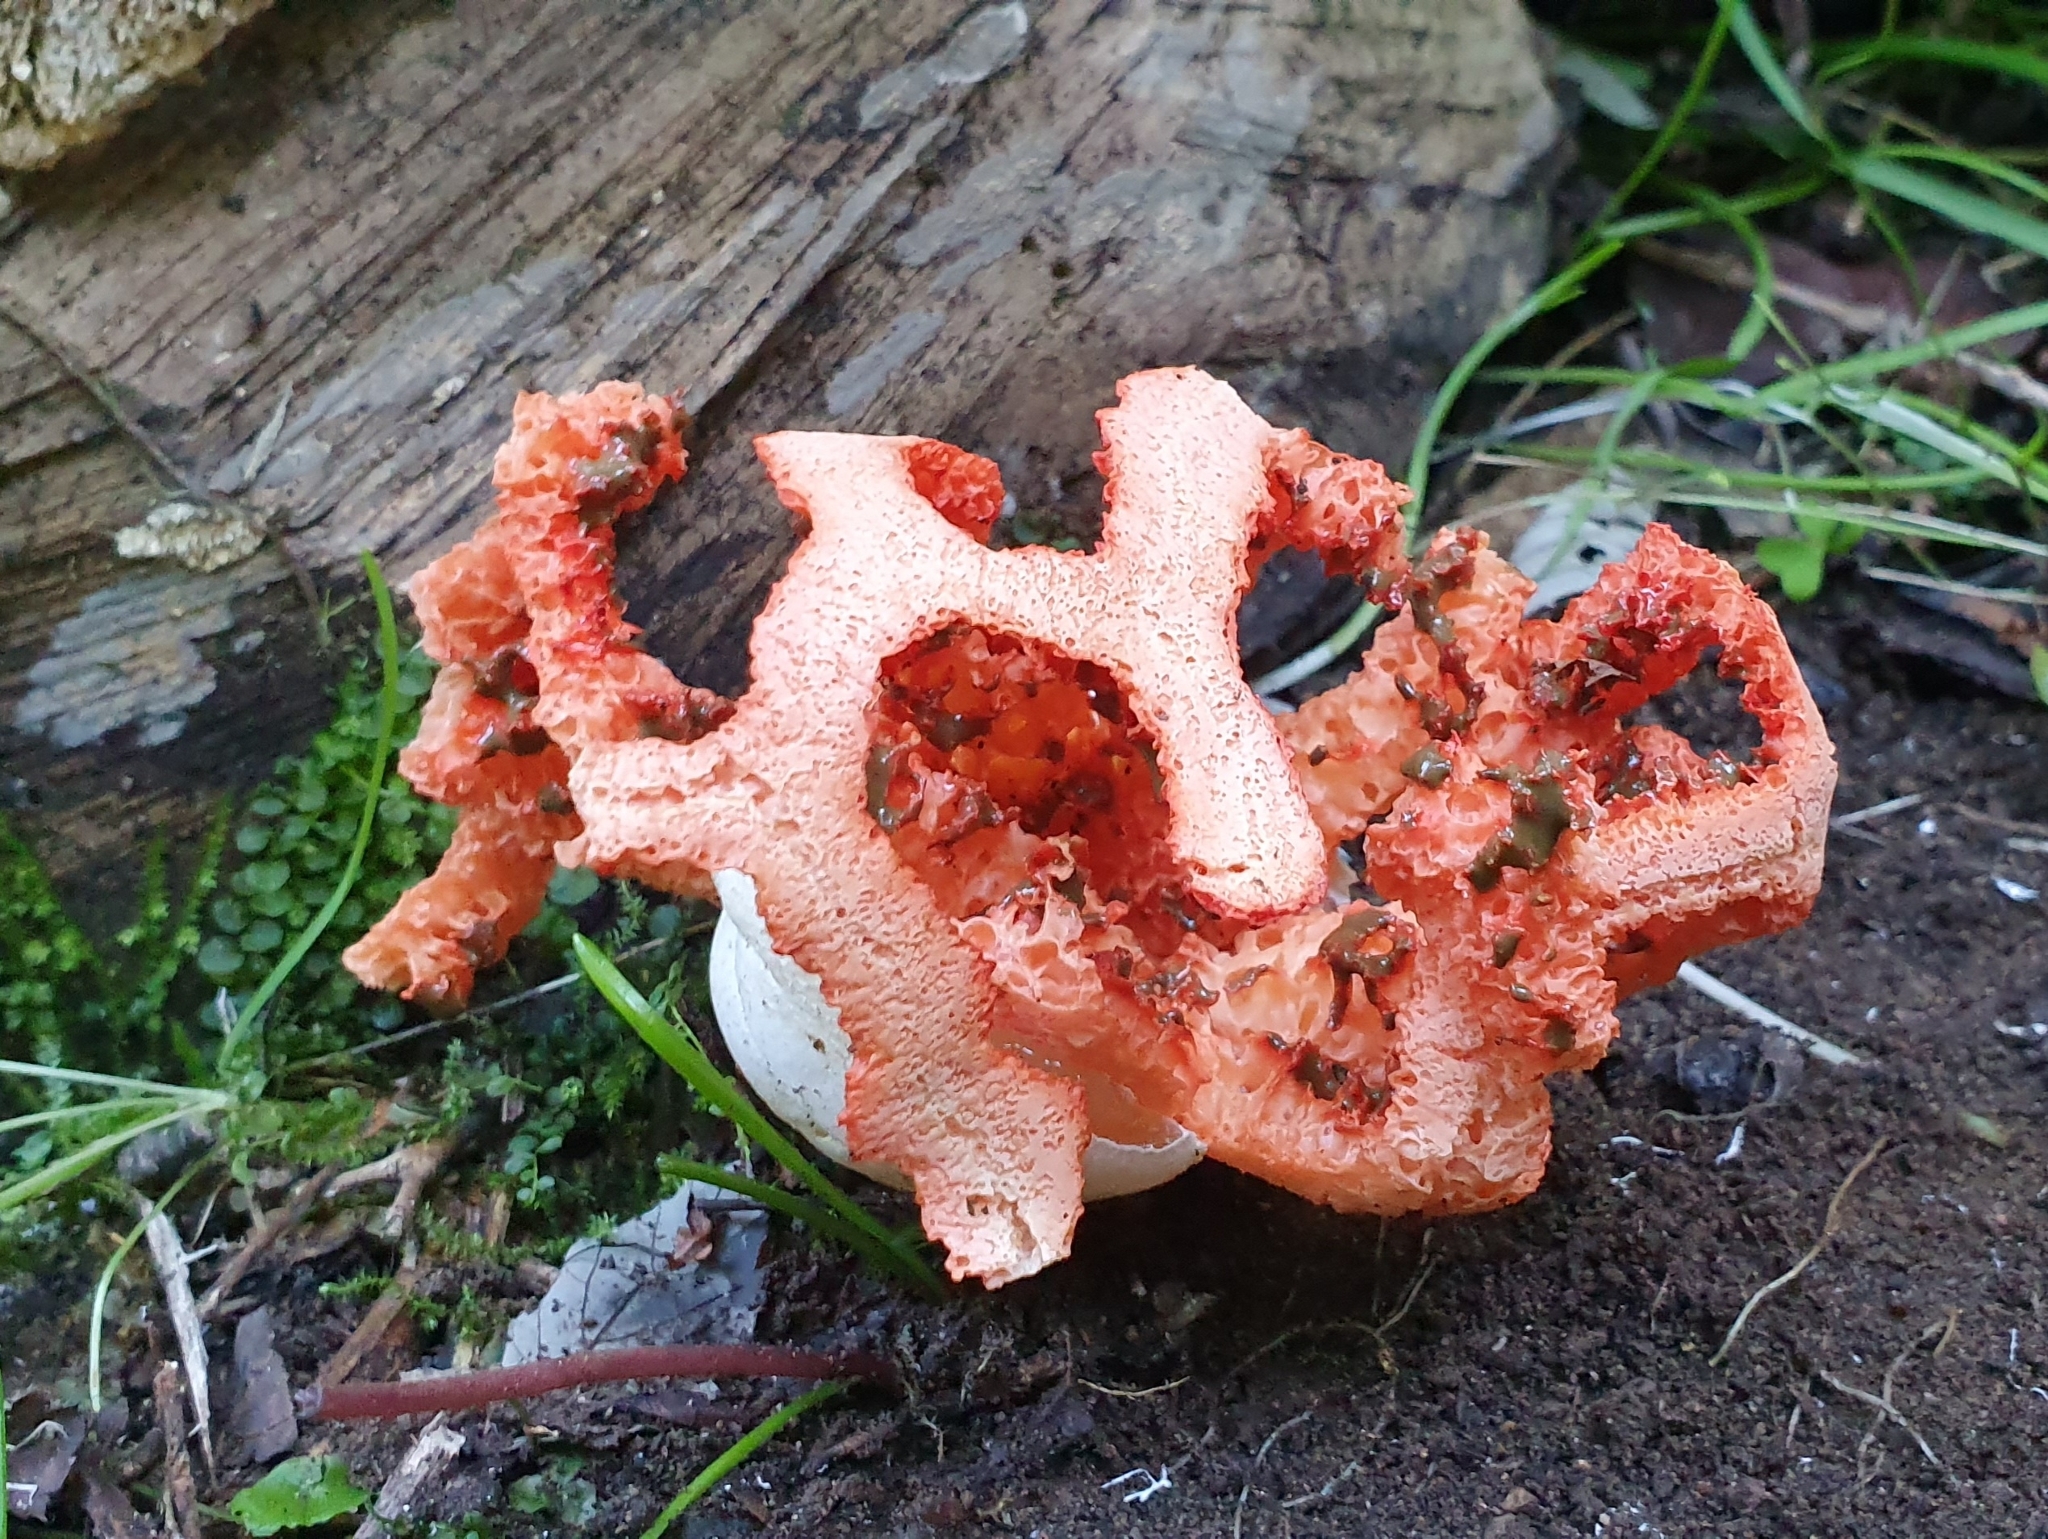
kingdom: Fungi
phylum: Basidiomycota
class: Agaricomycetes
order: Phallales
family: Phallaceae
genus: Clathrus
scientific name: Clathrus ruber
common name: Red cage
